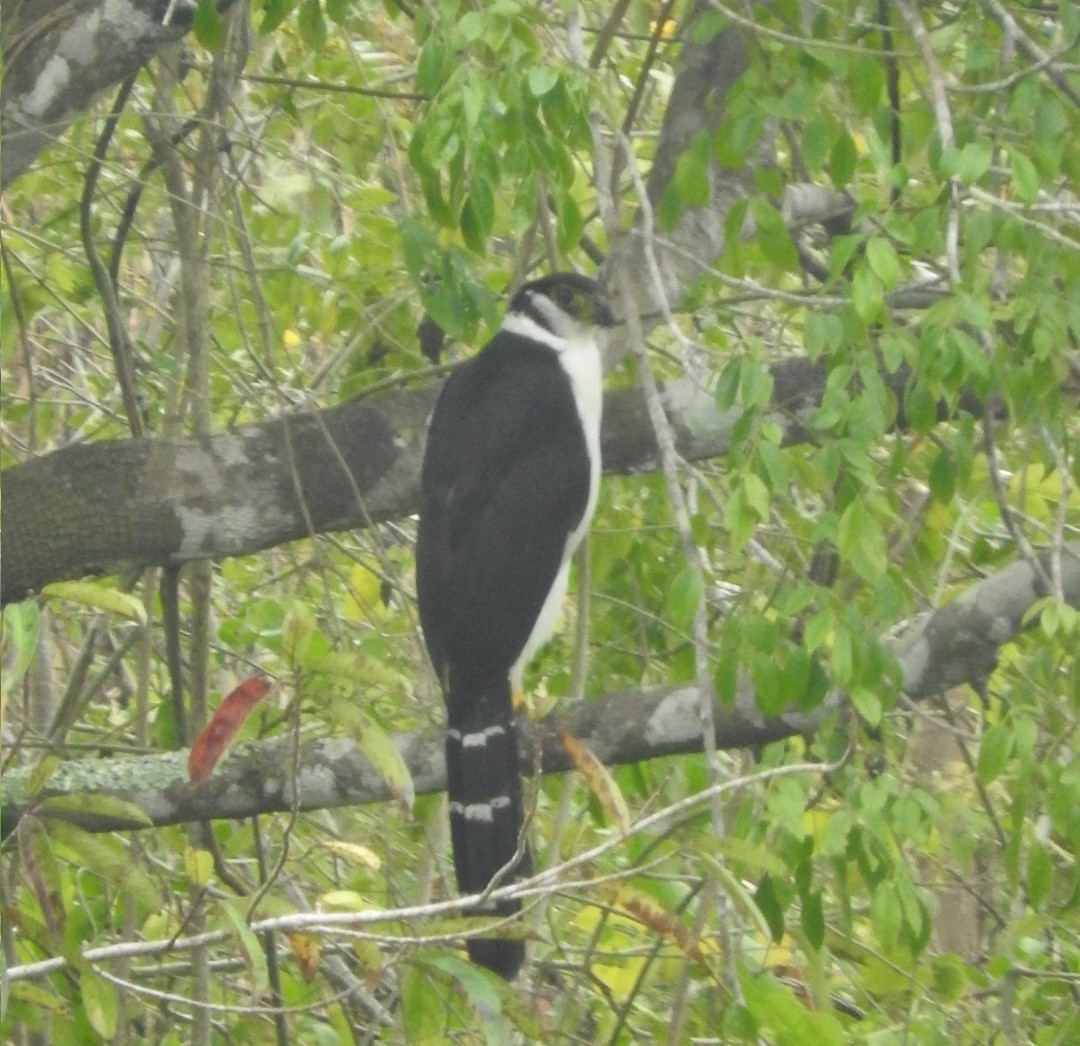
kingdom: Animalia
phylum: Chordata
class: Aves
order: Falconiformes
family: Falconidae
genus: Micrastur
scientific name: Micrastur semitorquatus
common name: Collared forest-falcon
